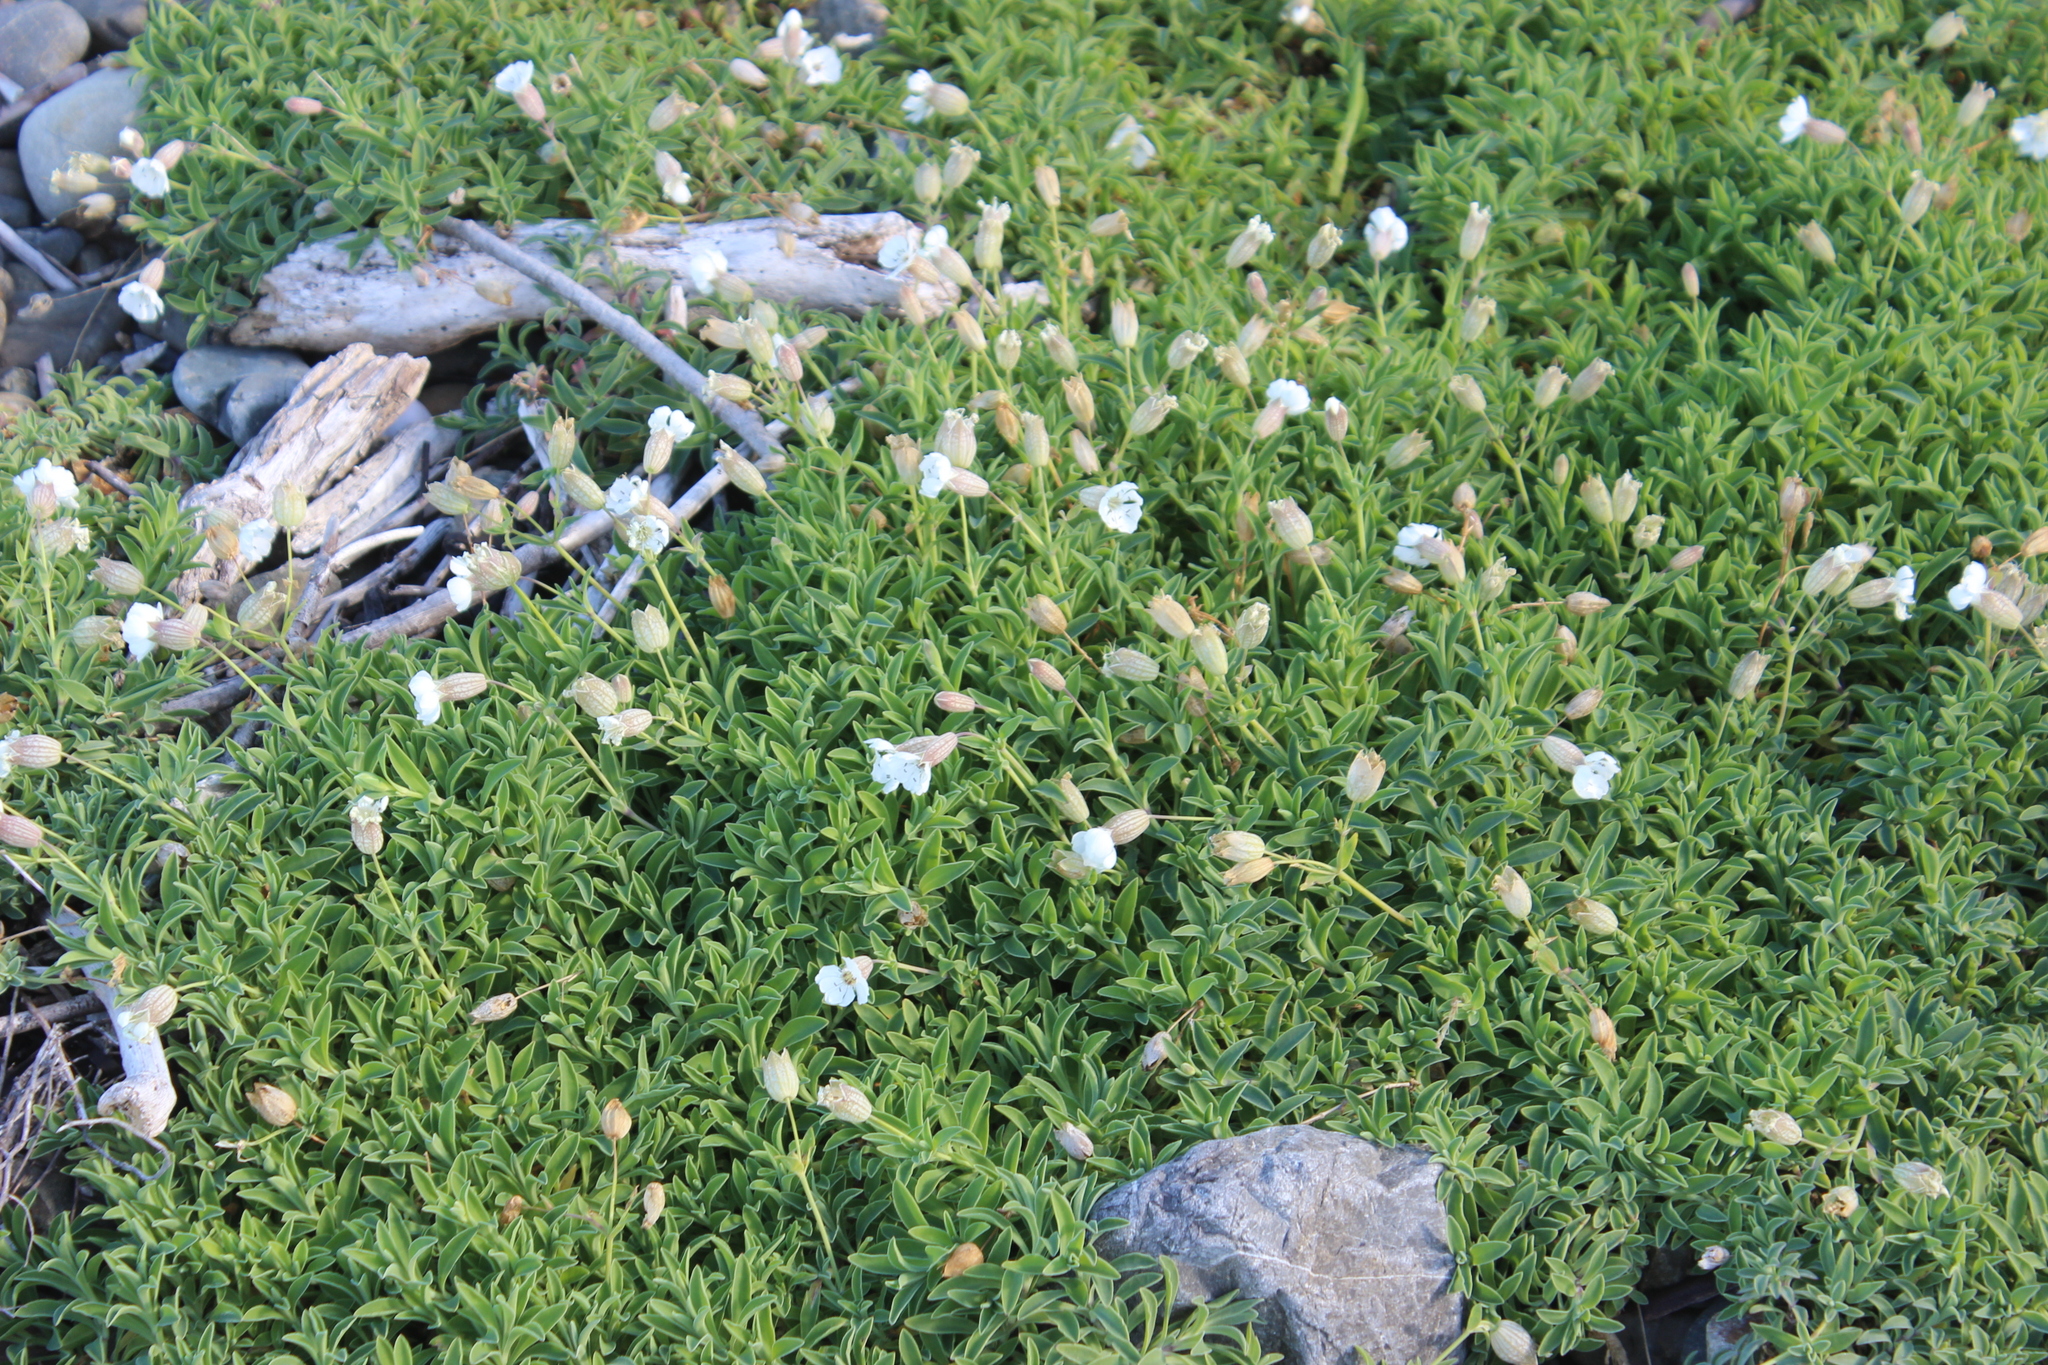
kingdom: Plantae
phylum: Tracheophyta
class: Magnoliopsida
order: Caryophyllales
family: Caryophyllaceae
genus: Silene
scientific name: Silene uniflora
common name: Sea campion
